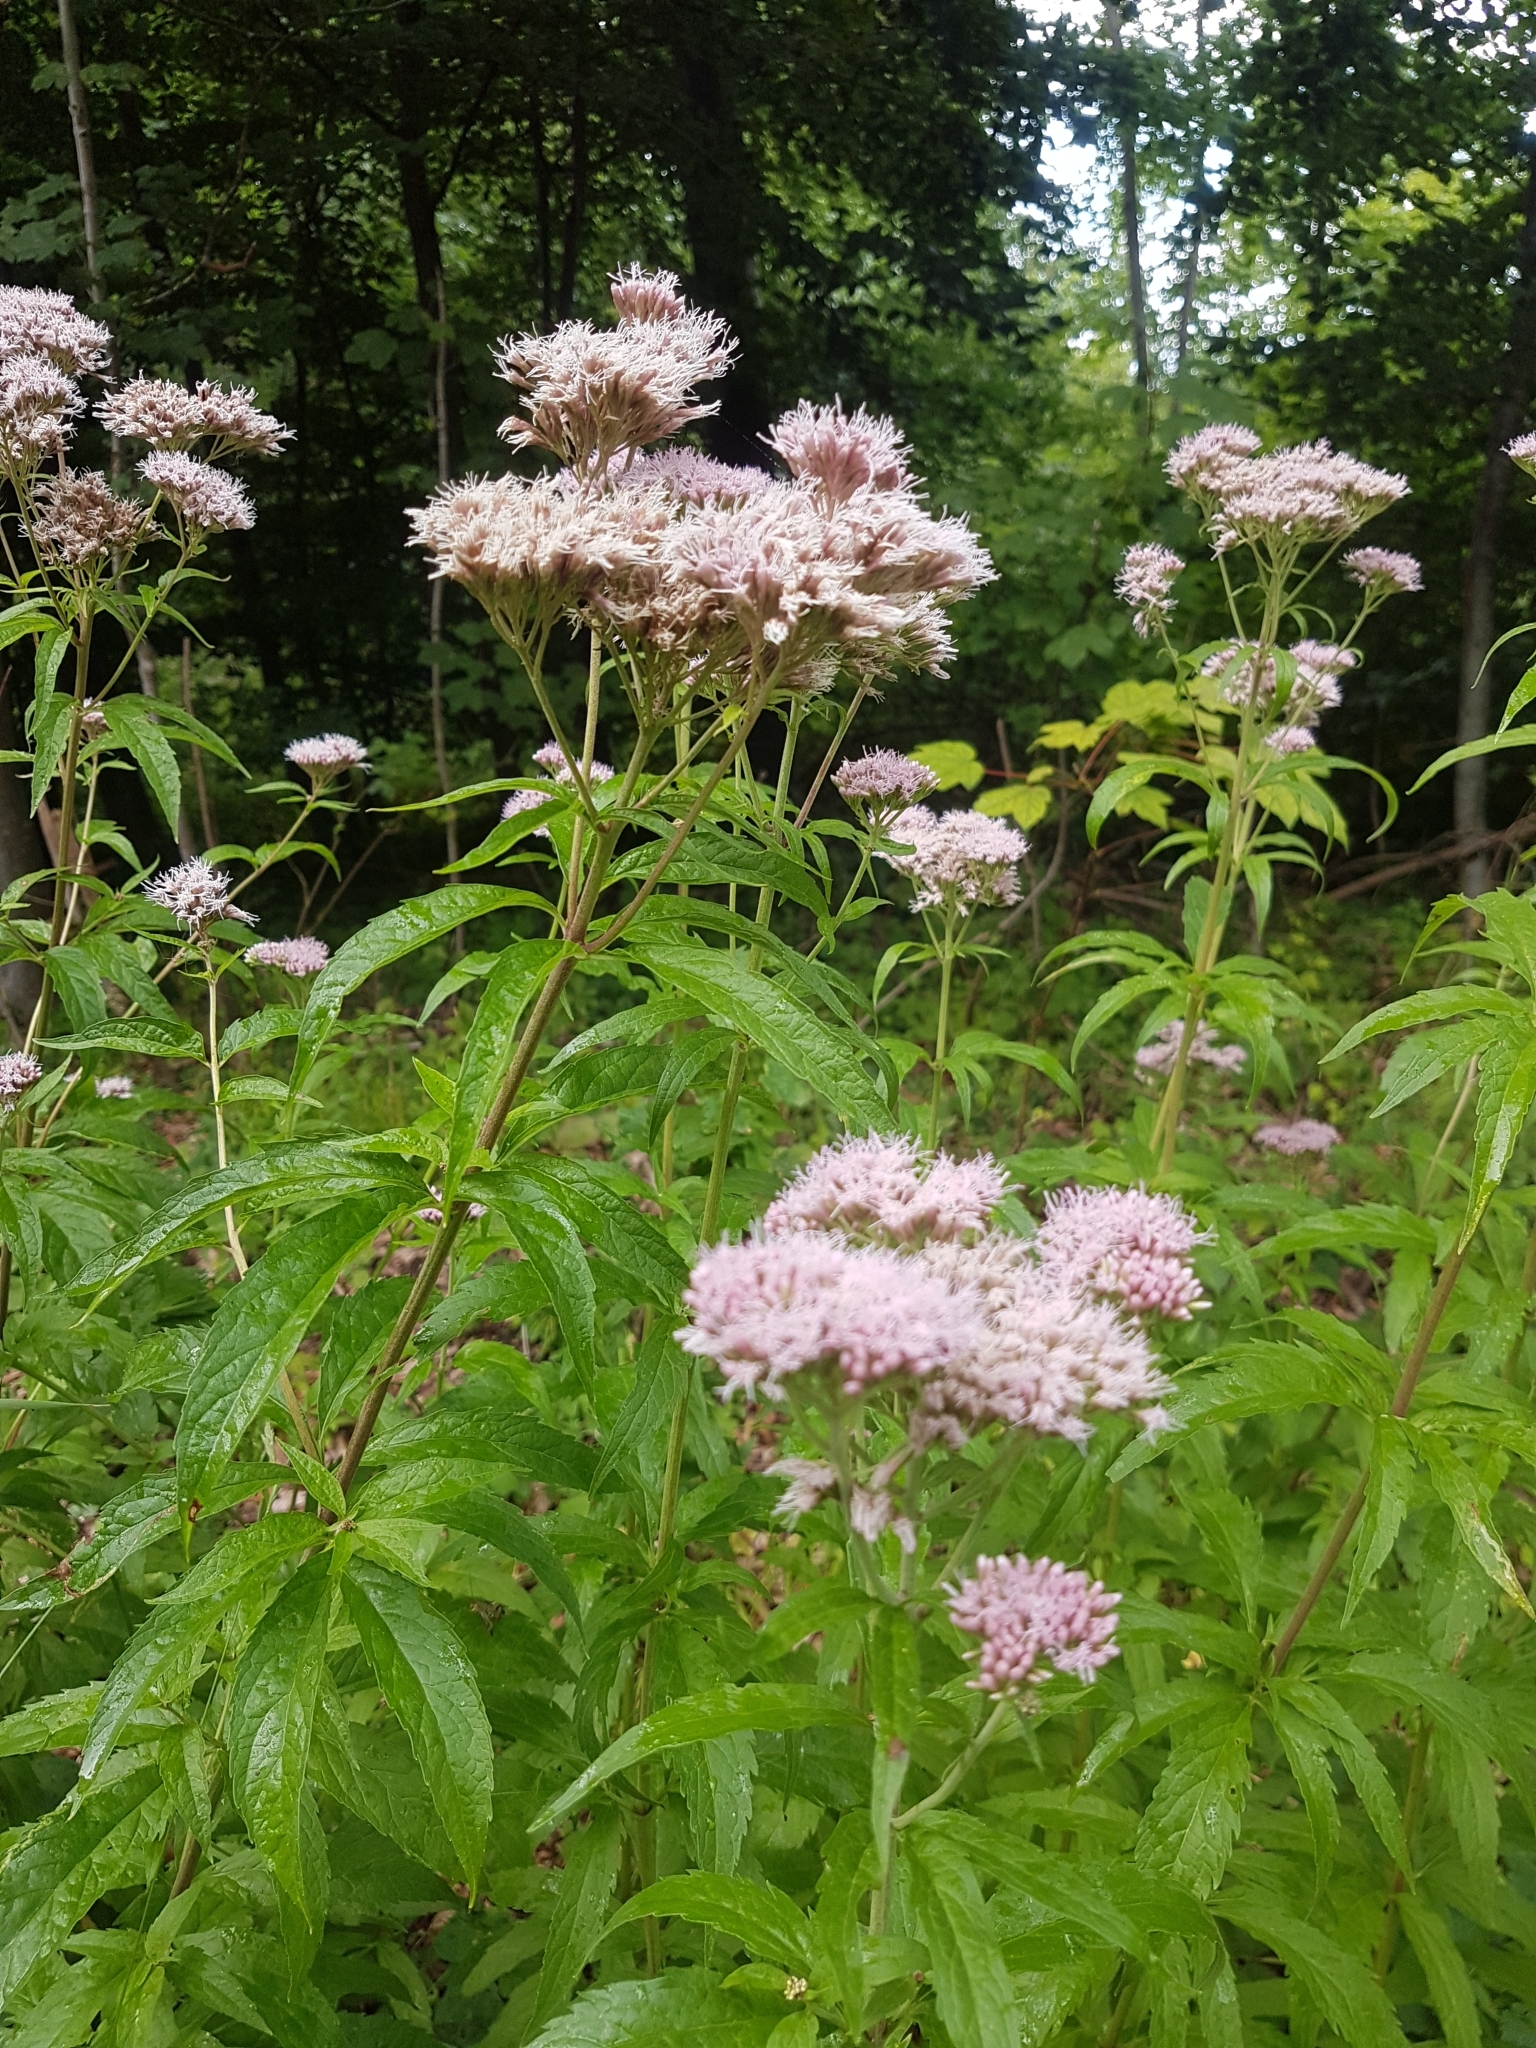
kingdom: Plantae
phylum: Tracheophyta
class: Magnoliopsida
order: Asterales
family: Asteraceae
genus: Eupatorium
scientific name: Eupatorium cannabinum
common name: Hemp-agrimony
